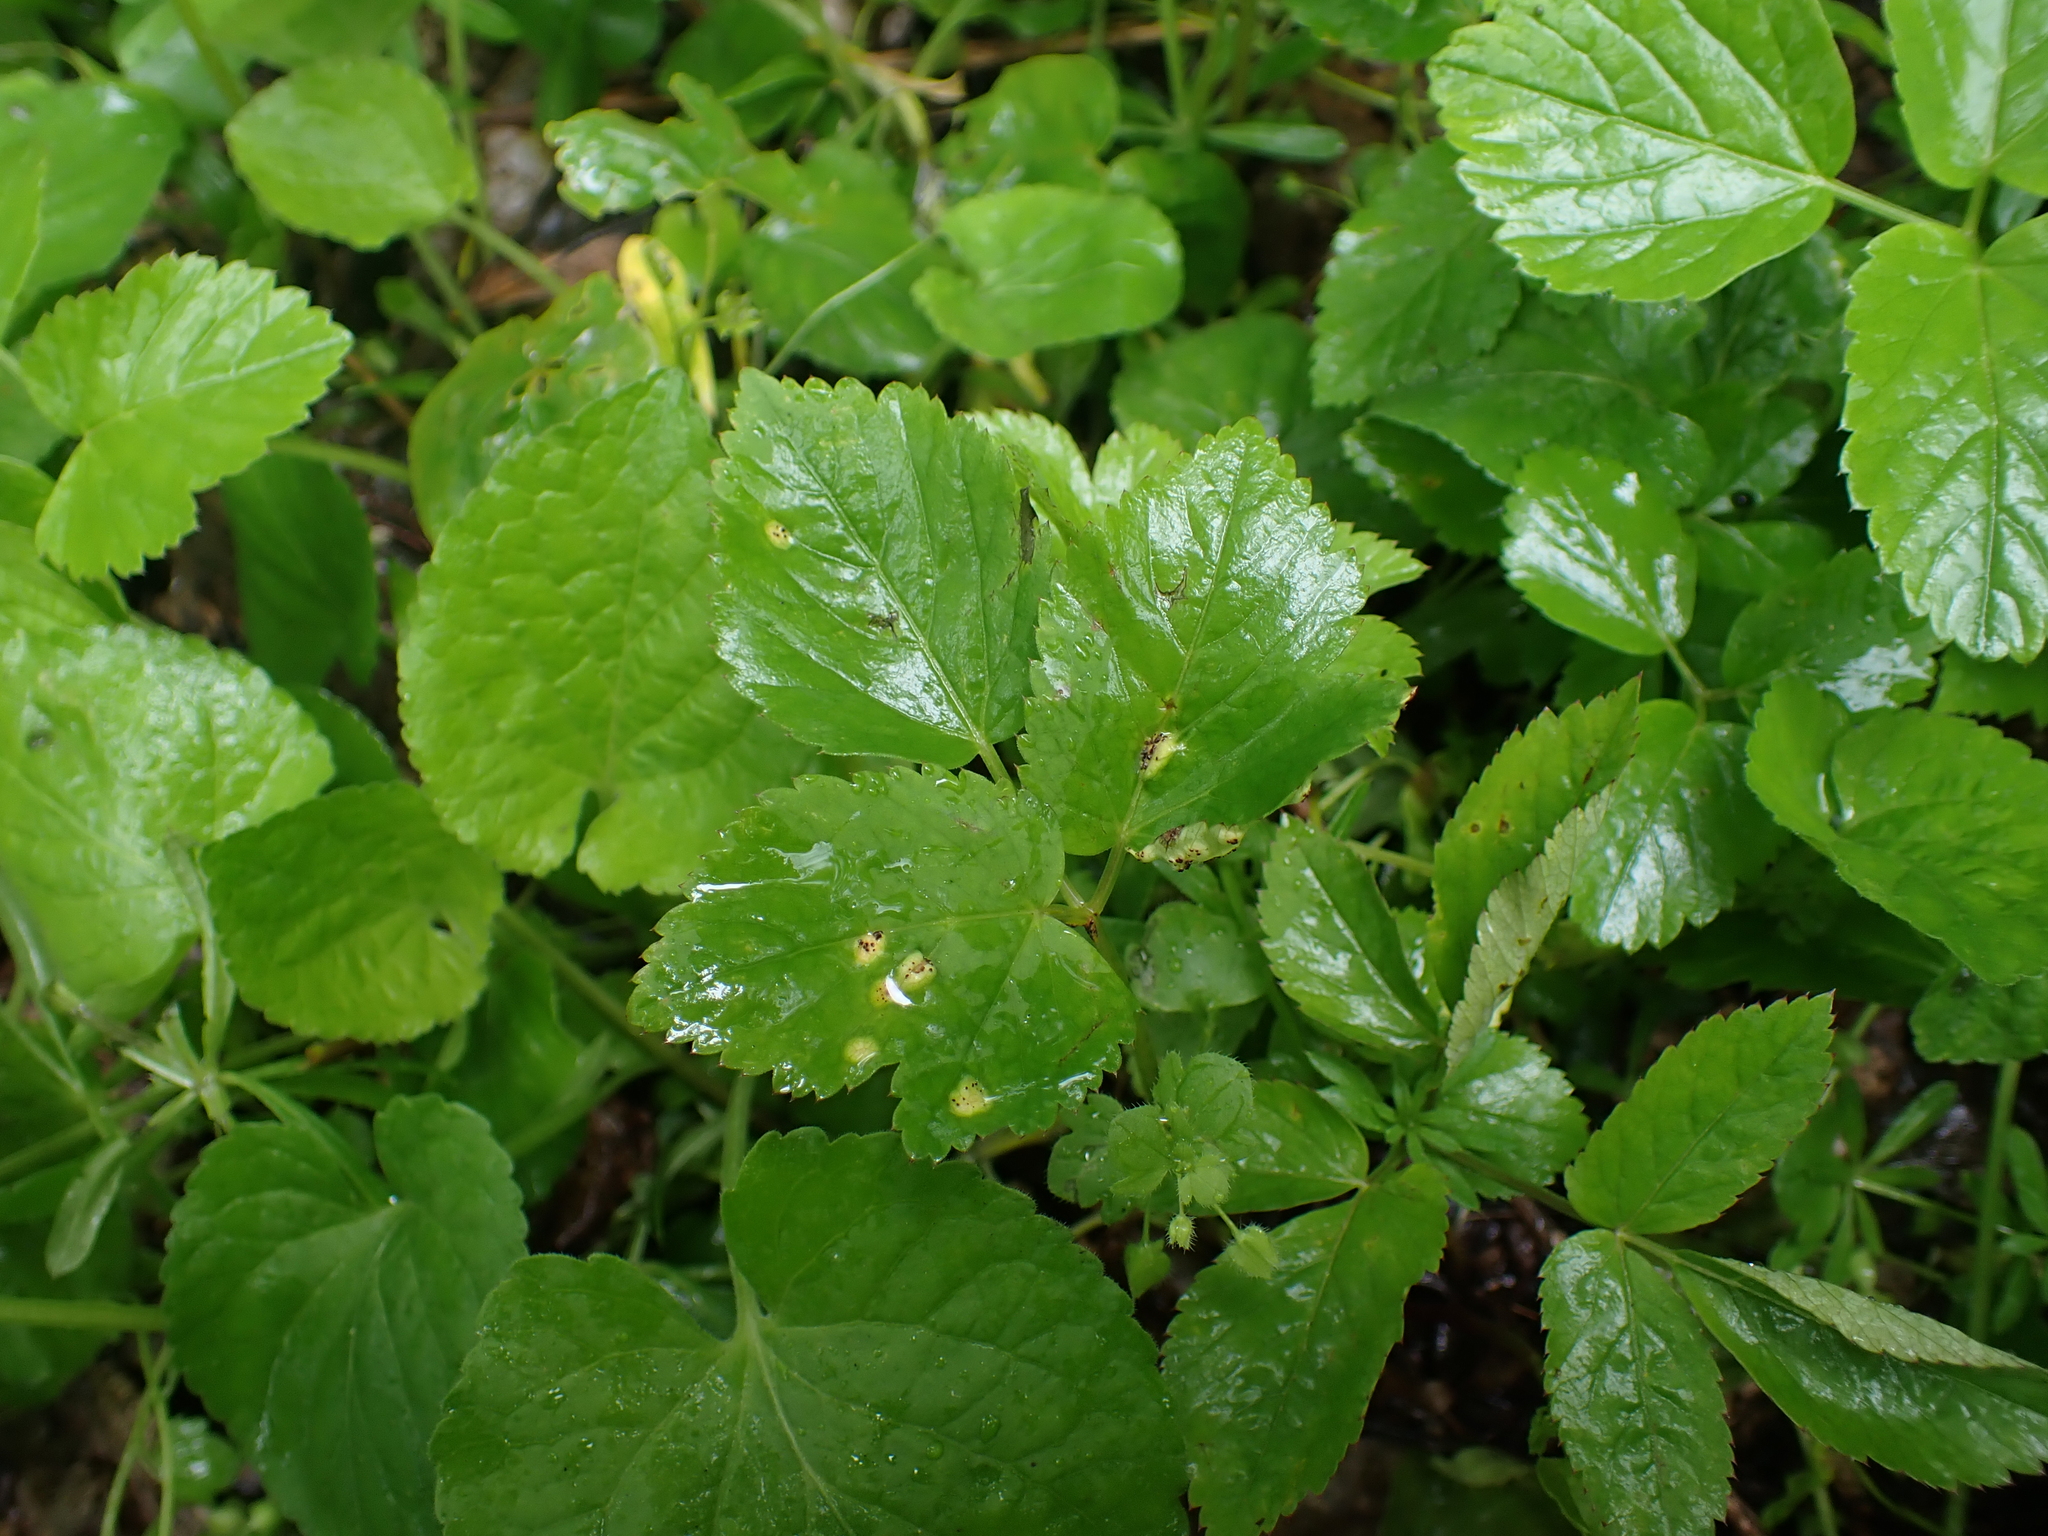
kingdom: Plantae
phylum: Tracheophyta
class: Magnoliopsida
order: Apiales
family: Apiaceae
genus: Aegopodium
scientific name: Aegopodium podagraria
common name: Ground-elder
